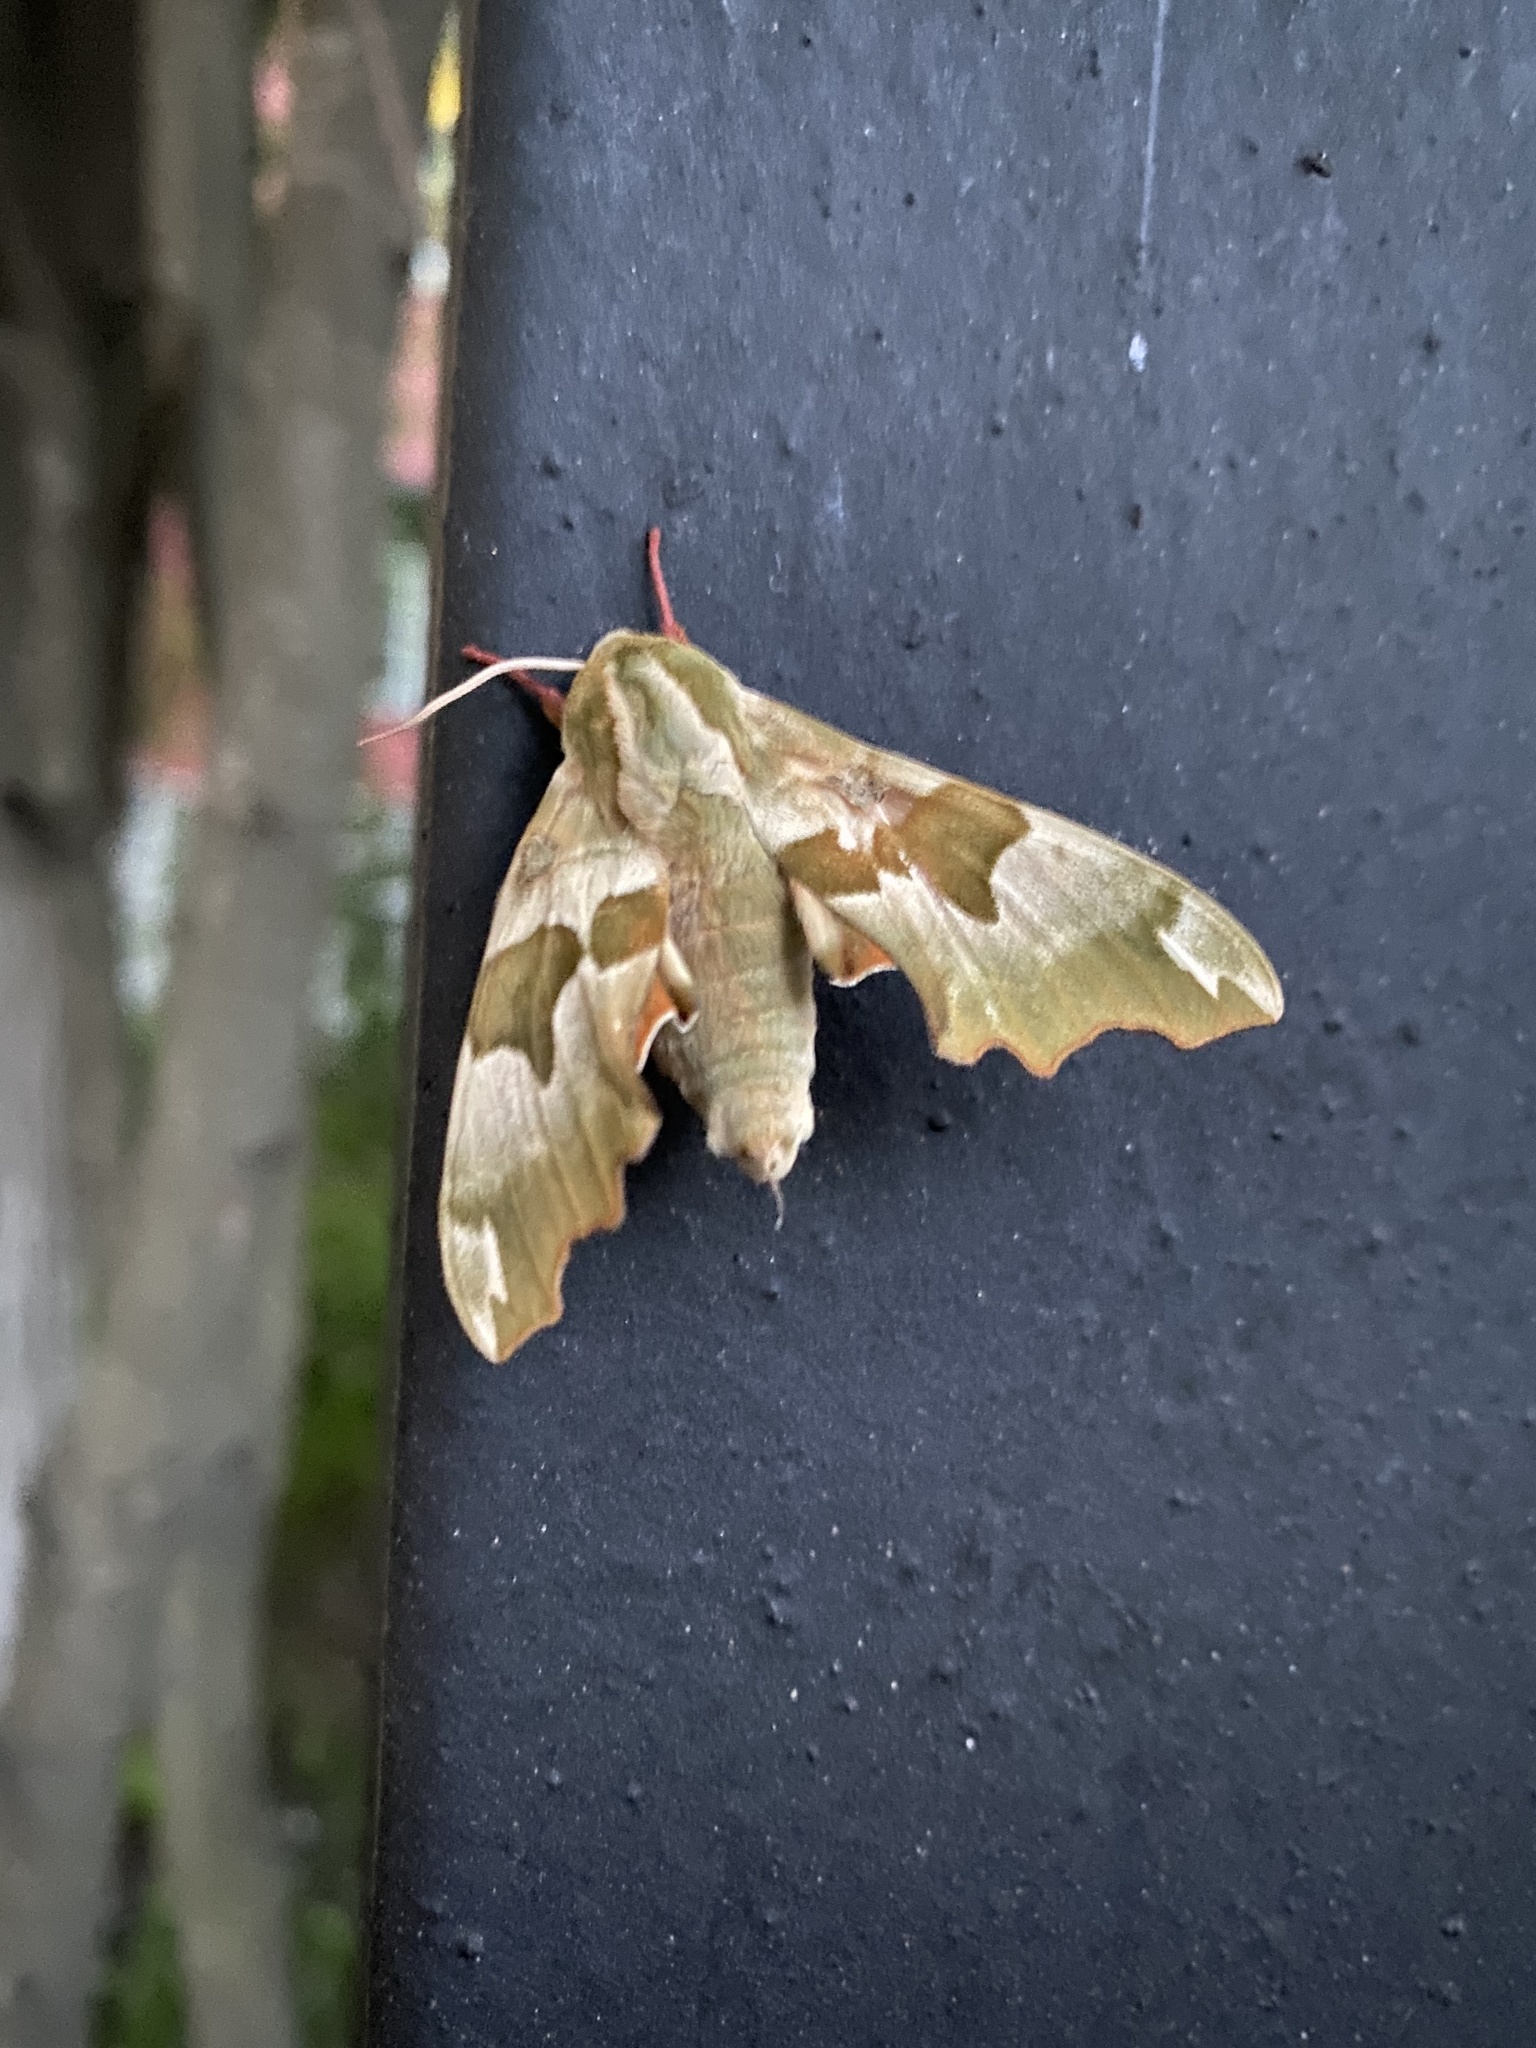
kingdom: Animalia
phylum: Arthropoda
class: Insecta
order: Lepidoptera
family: Sphingidae
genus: Mimas
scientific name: Mimas tiliae
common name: Lime hawk-moth
